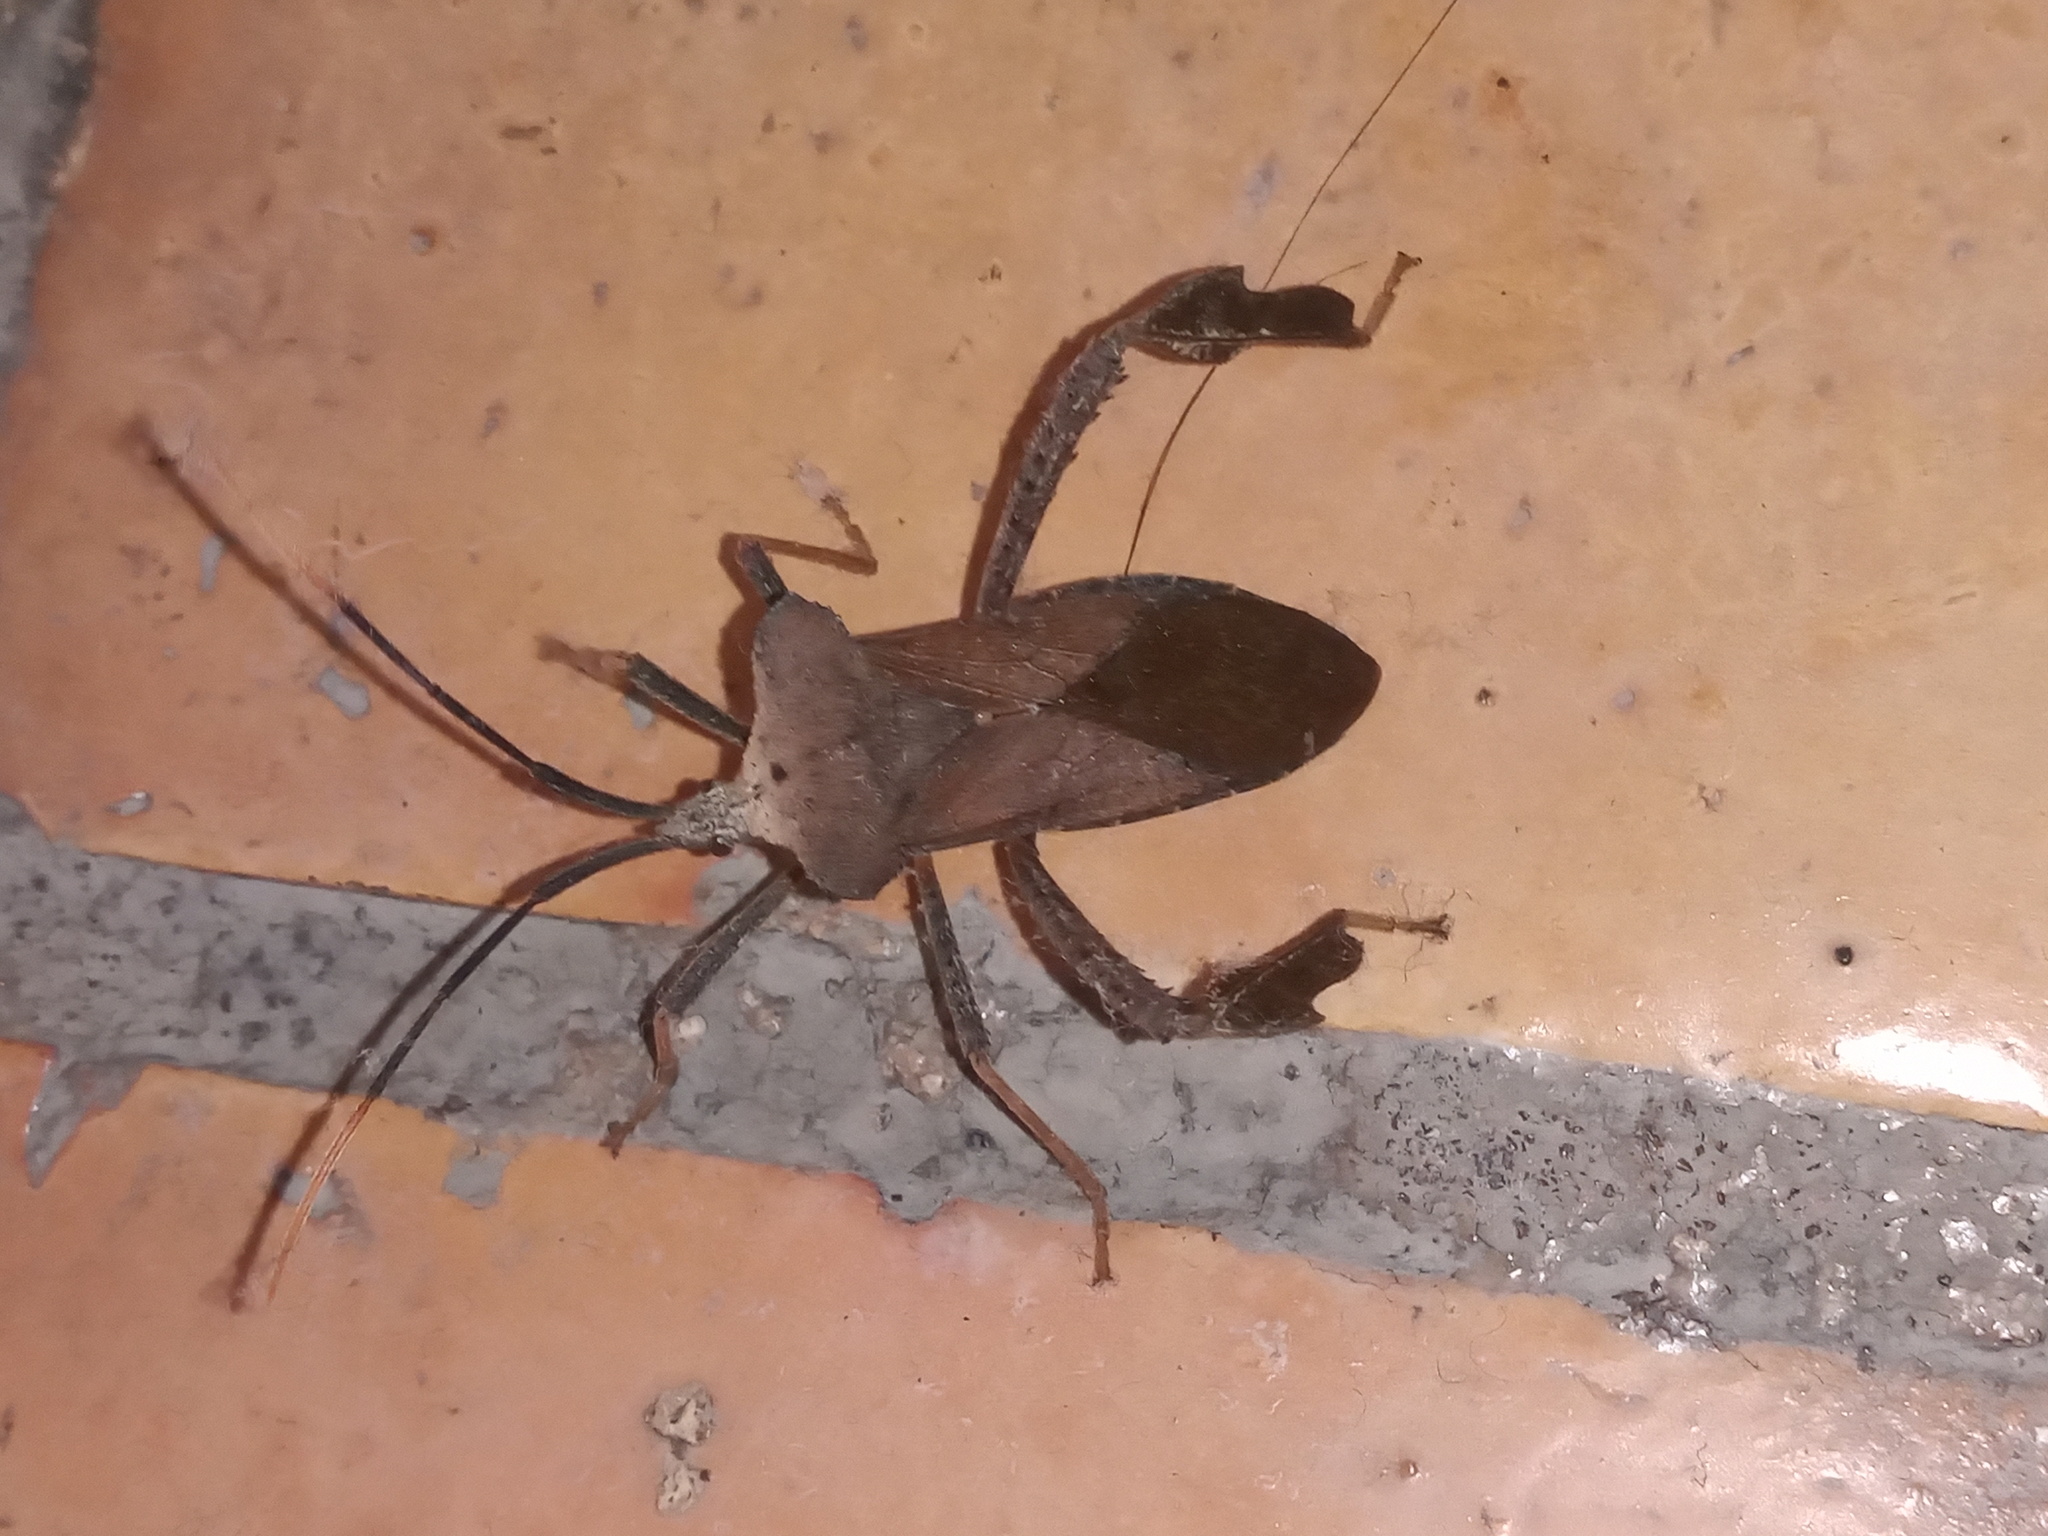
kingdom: Animalia
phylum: Arthropoda
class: Insecta
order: Hemiptera
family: Coreidae
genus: Acanthocephala
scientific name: Acanthocephala alata
